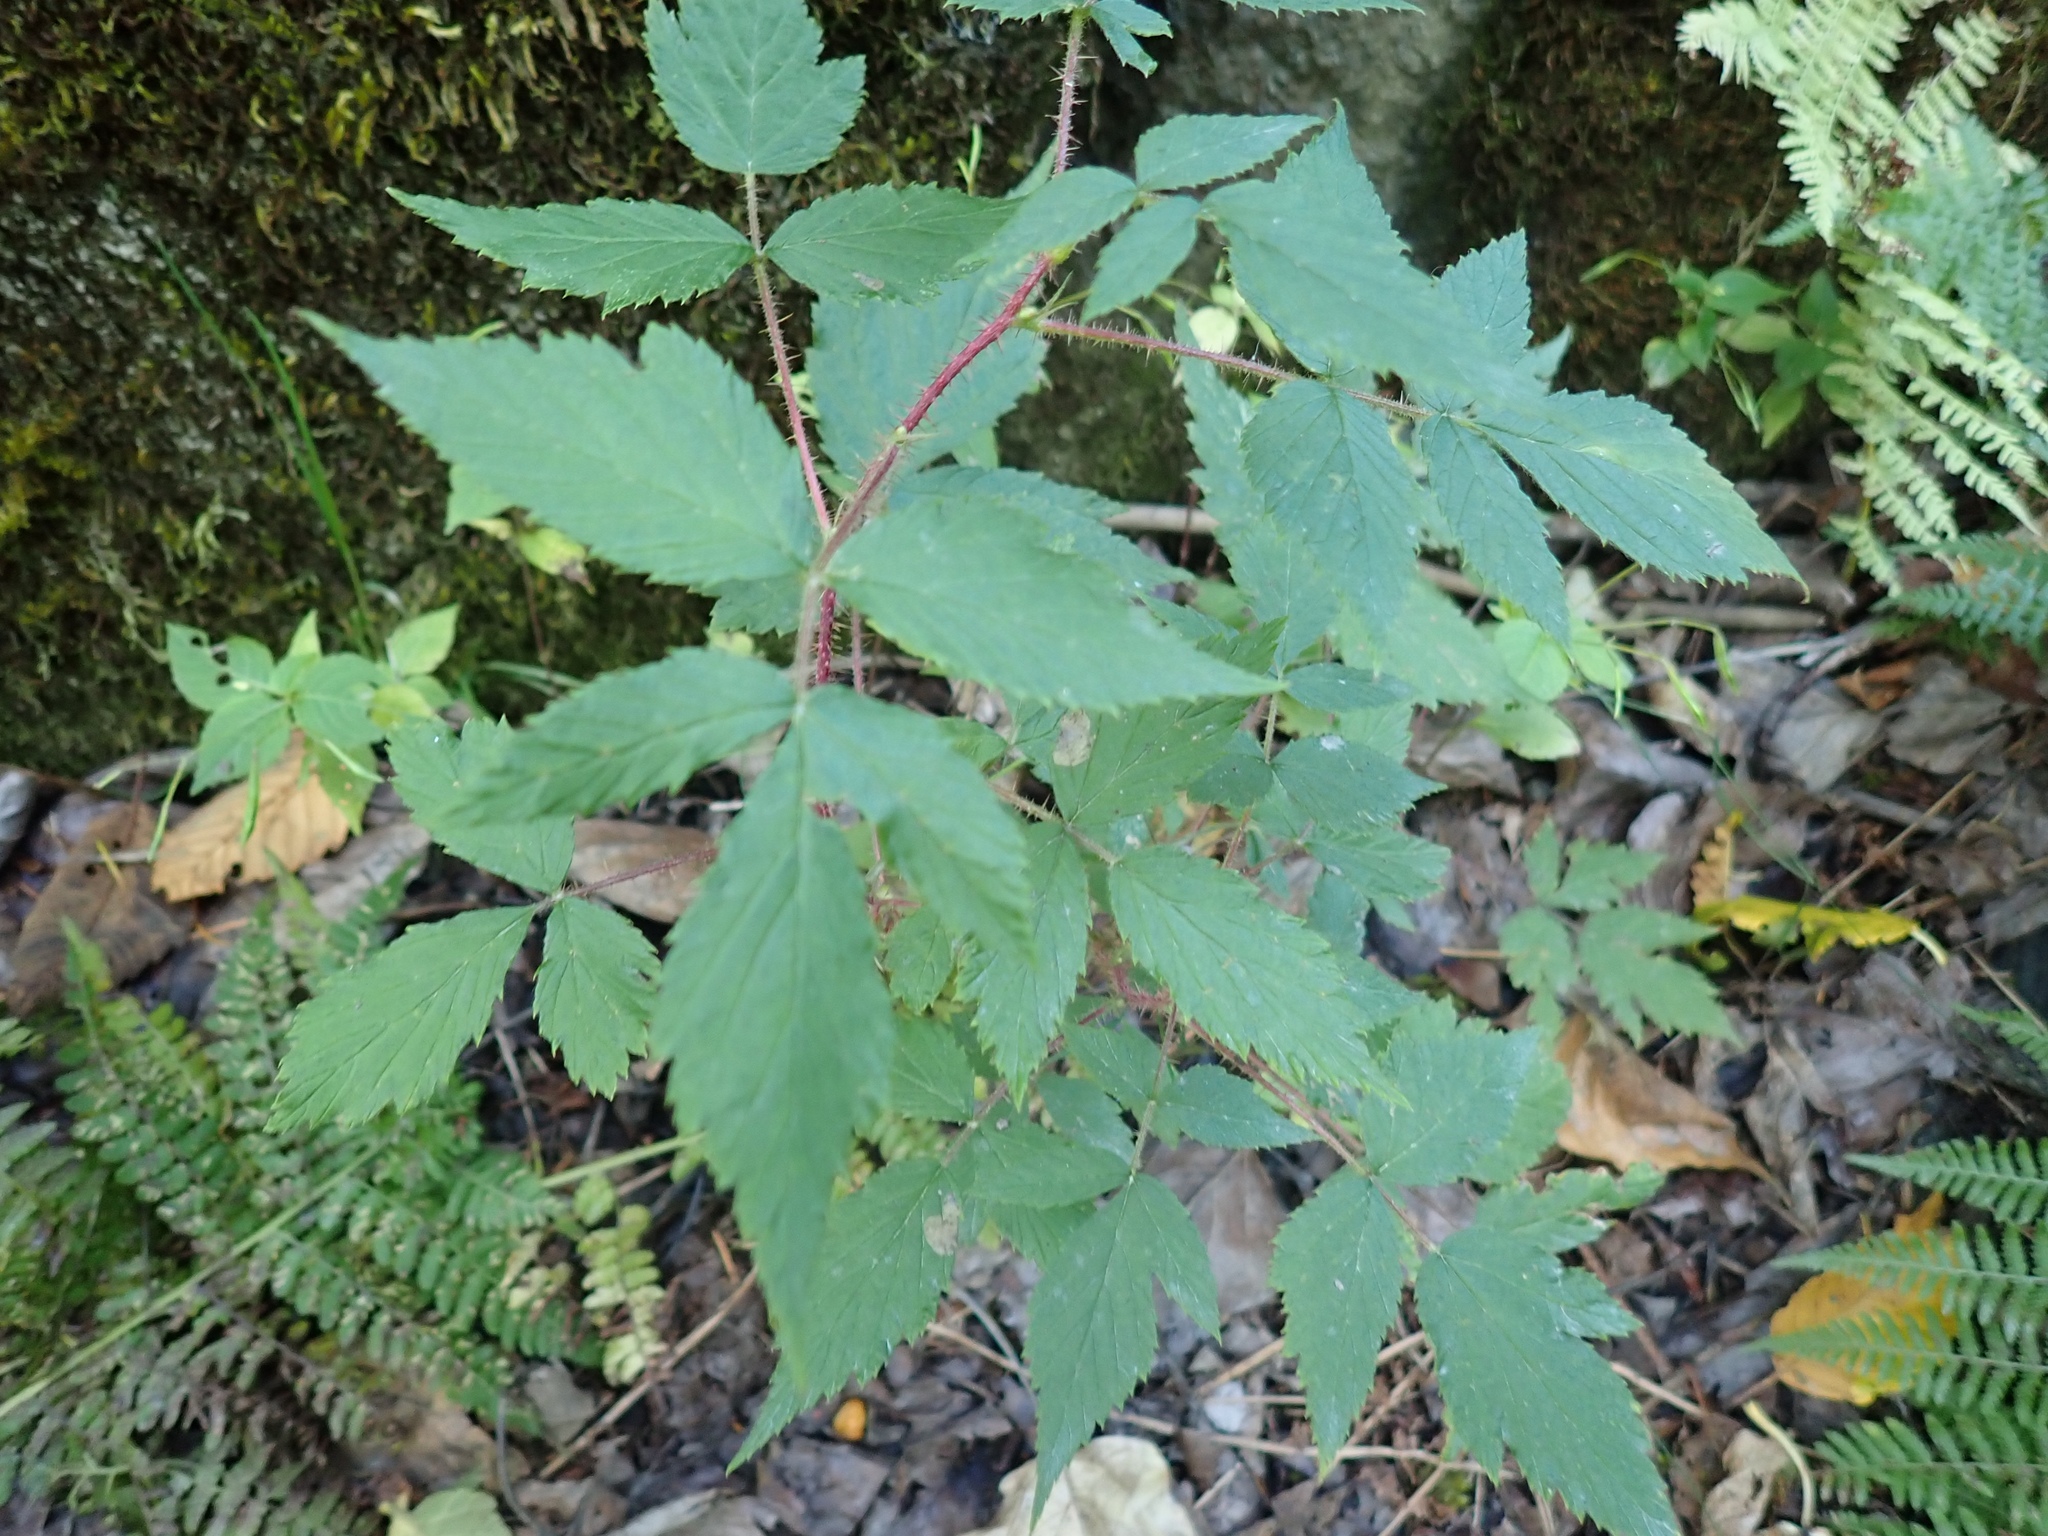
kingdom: Plantae
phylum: Tracheophyta
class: Magnoliopsida
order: Rosales
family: Rosaceae
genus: Rubus
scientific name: Rubus idaeus
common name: Raspberry
